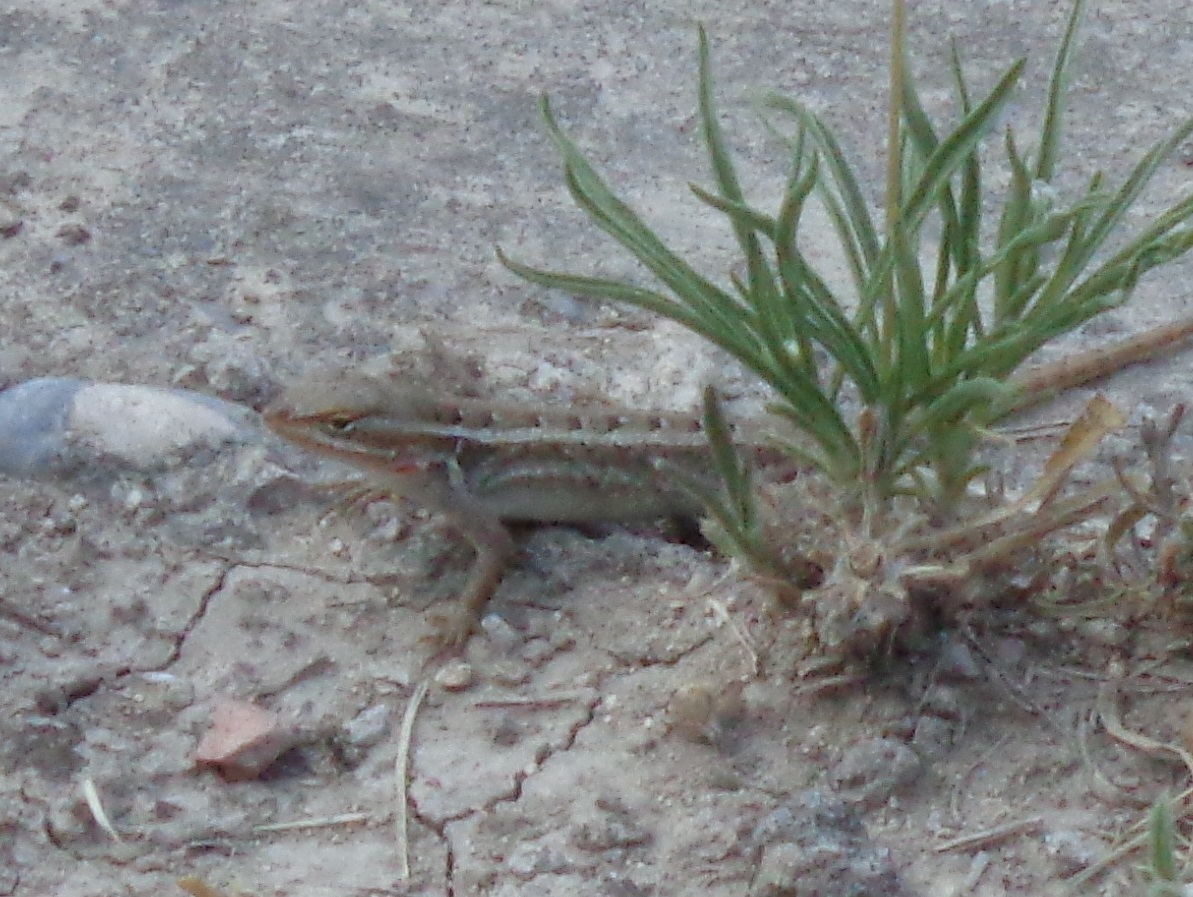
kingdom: Animalia
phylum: Chordata
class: Squamata
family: Phrynosomatidae
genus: Sceloporus
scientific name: Sceloporus variabilis
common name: Rosebelly lizard
